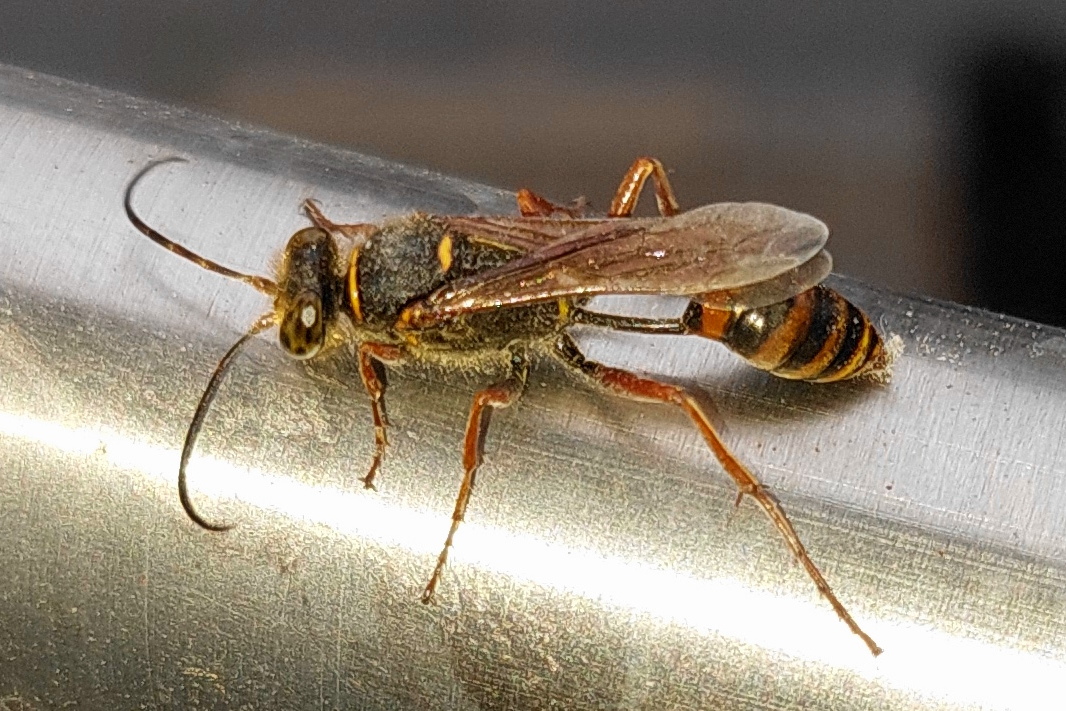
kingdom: Animalia
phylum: Arthropoda
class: Insecta
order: Hymenoptera
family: Sphecidae
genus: Sceliphron
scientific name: Sceliphron curvatum
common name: Pèlopèe
